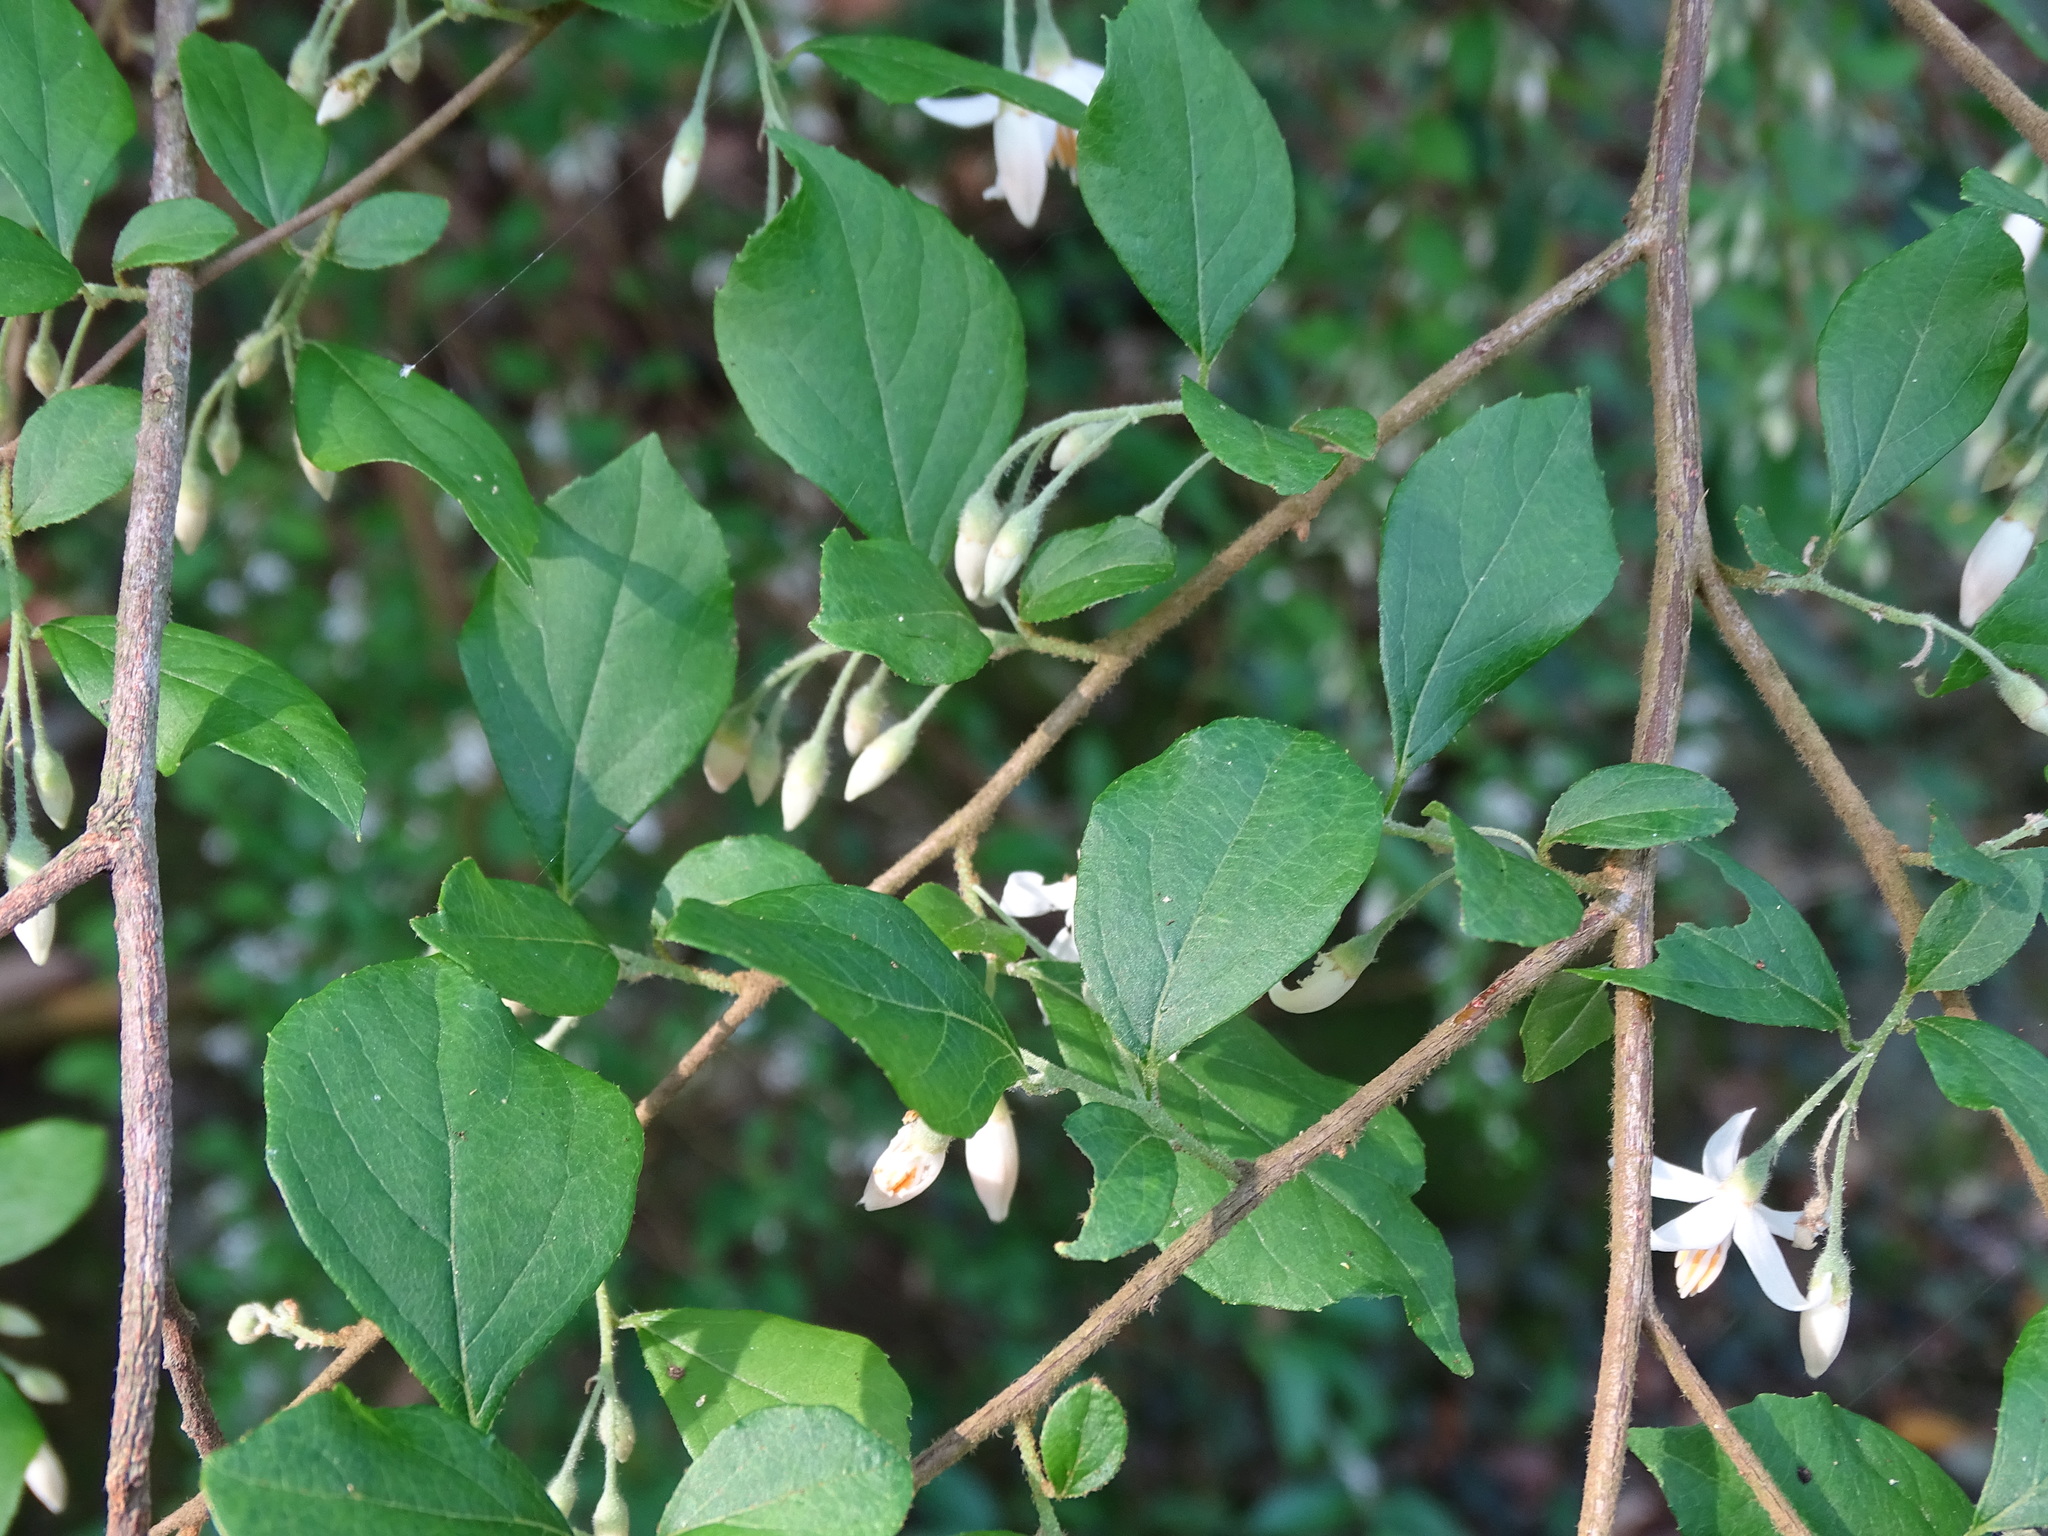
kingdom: Plantae
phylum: Tracheophyta
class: Magnoliopsida
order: Ericales
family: Styracaceae
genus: Styrax
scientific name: Styrax formosanus
